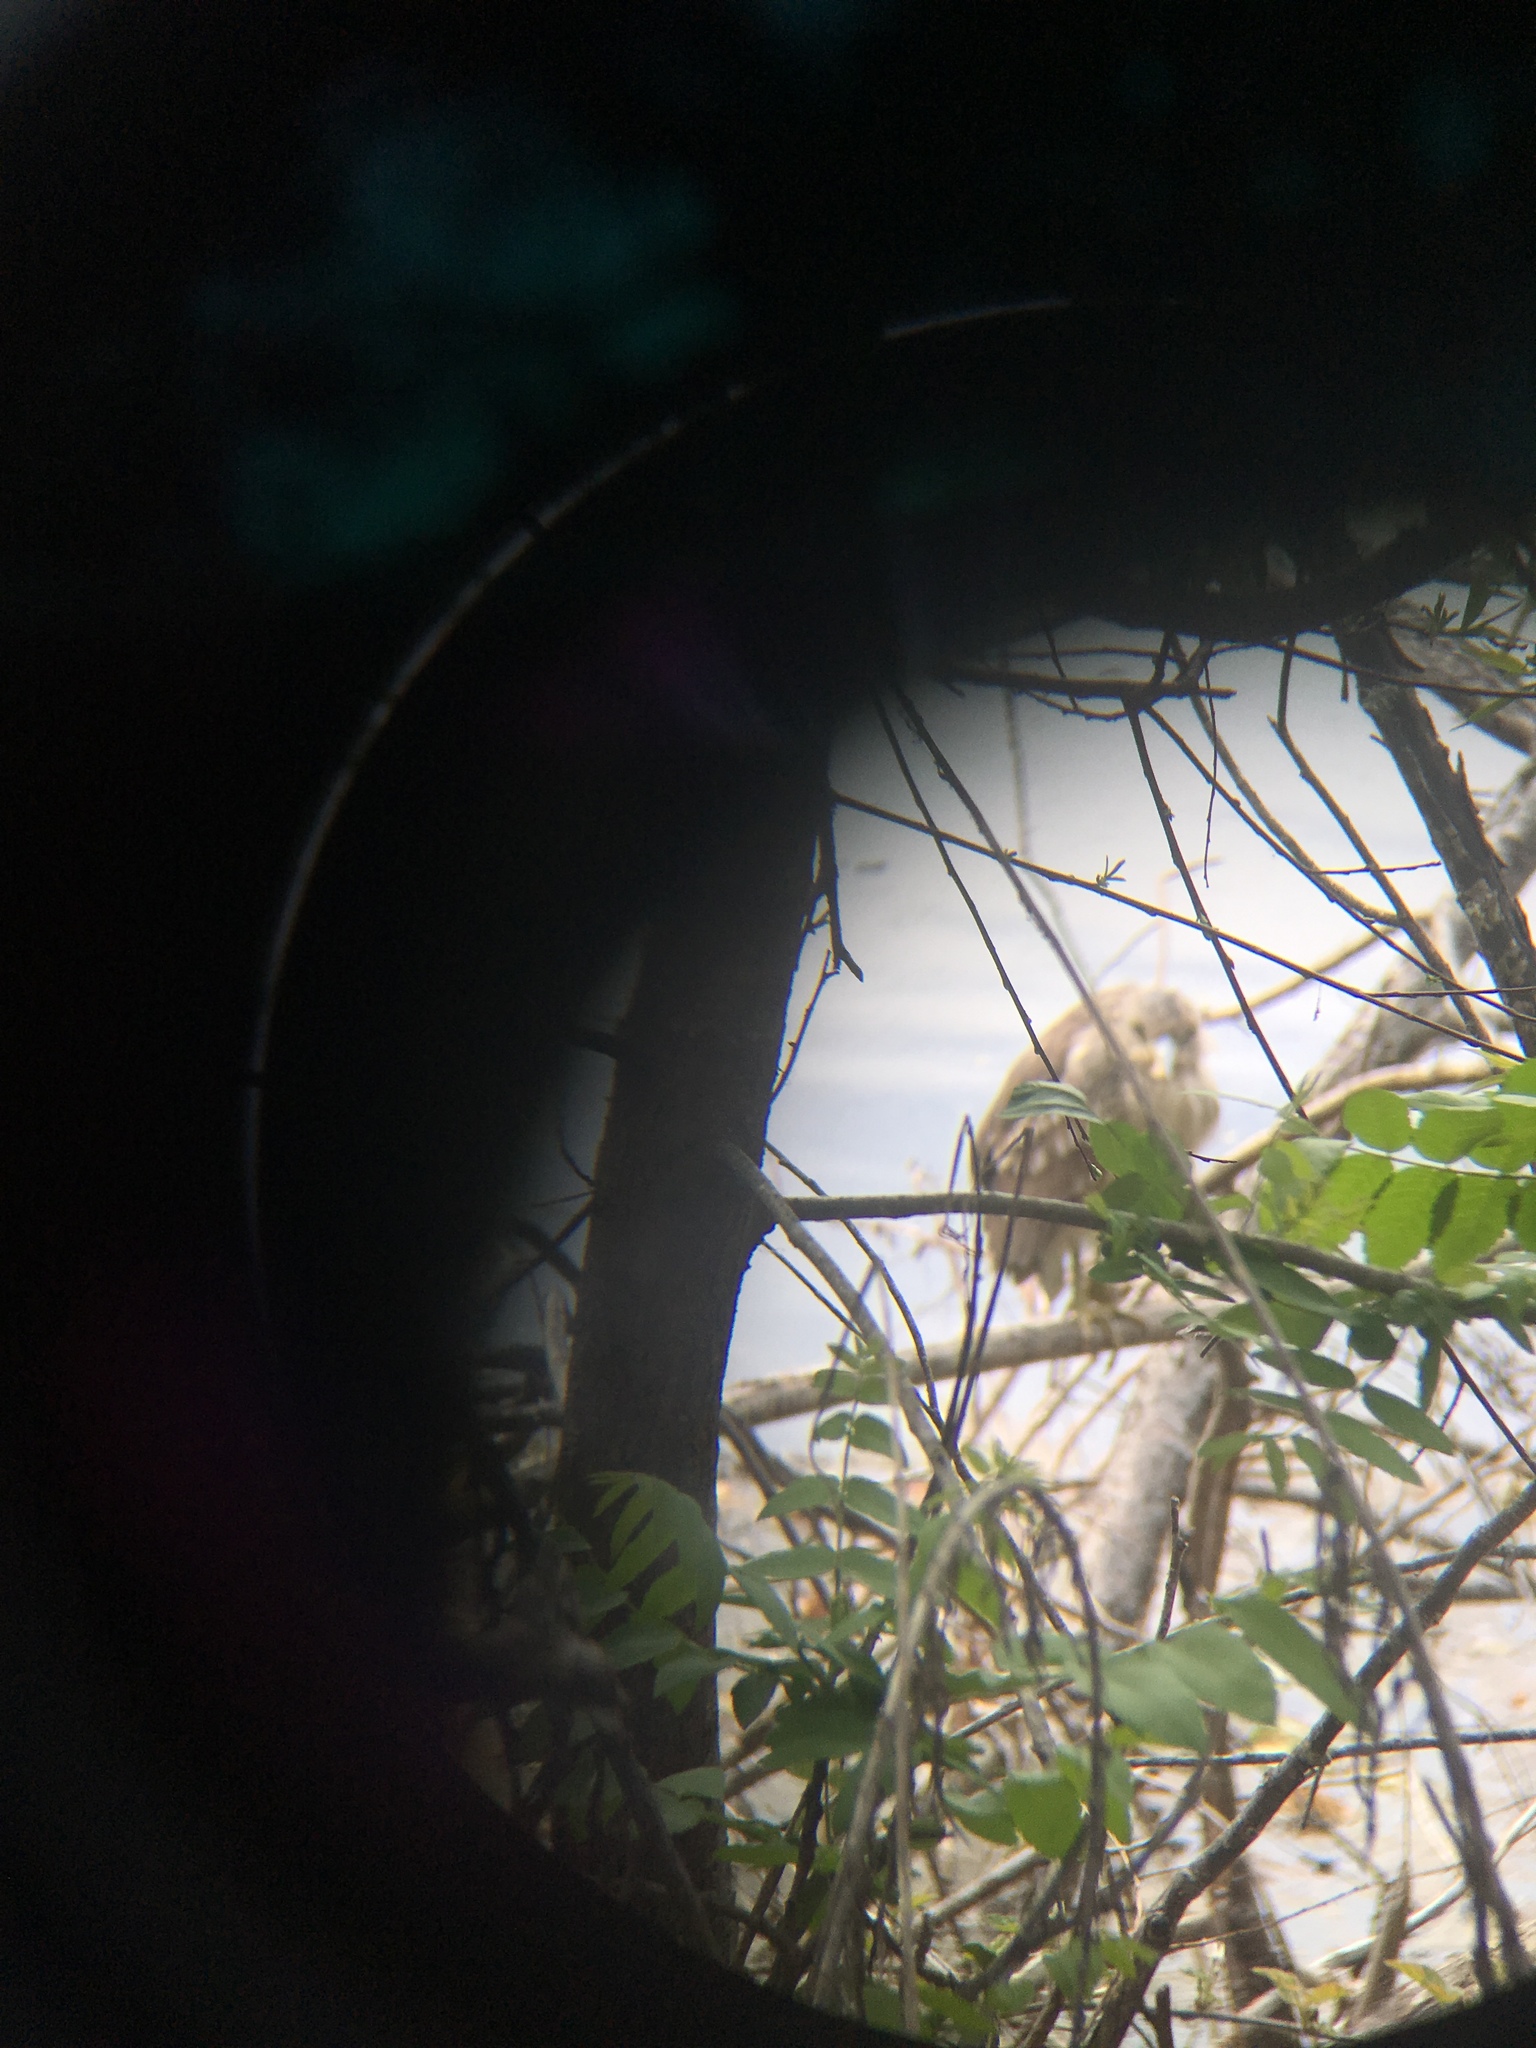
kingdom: Animalia
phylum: Chordata
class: Aves
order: Pelecaniformes
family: Ardeidae
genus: Nycticorax
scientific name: Nycticorax nycticorax
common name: Black-crowned night heron
